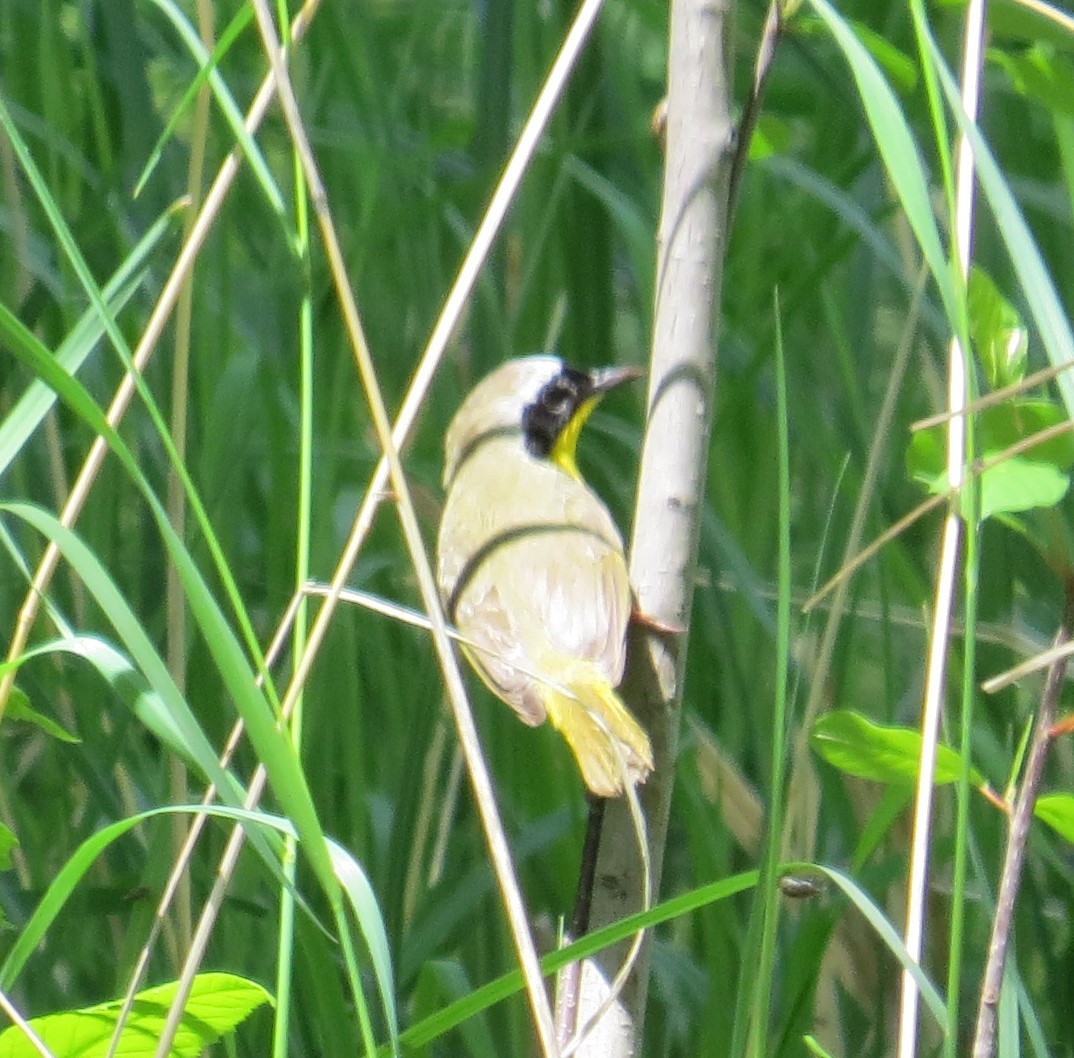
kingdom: Animalia
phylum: Chordata
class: Aves
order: Passeriformes
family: Parulidae
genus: Geothlypis
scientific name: Geothlypis trichas
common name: Common yellowthroat
